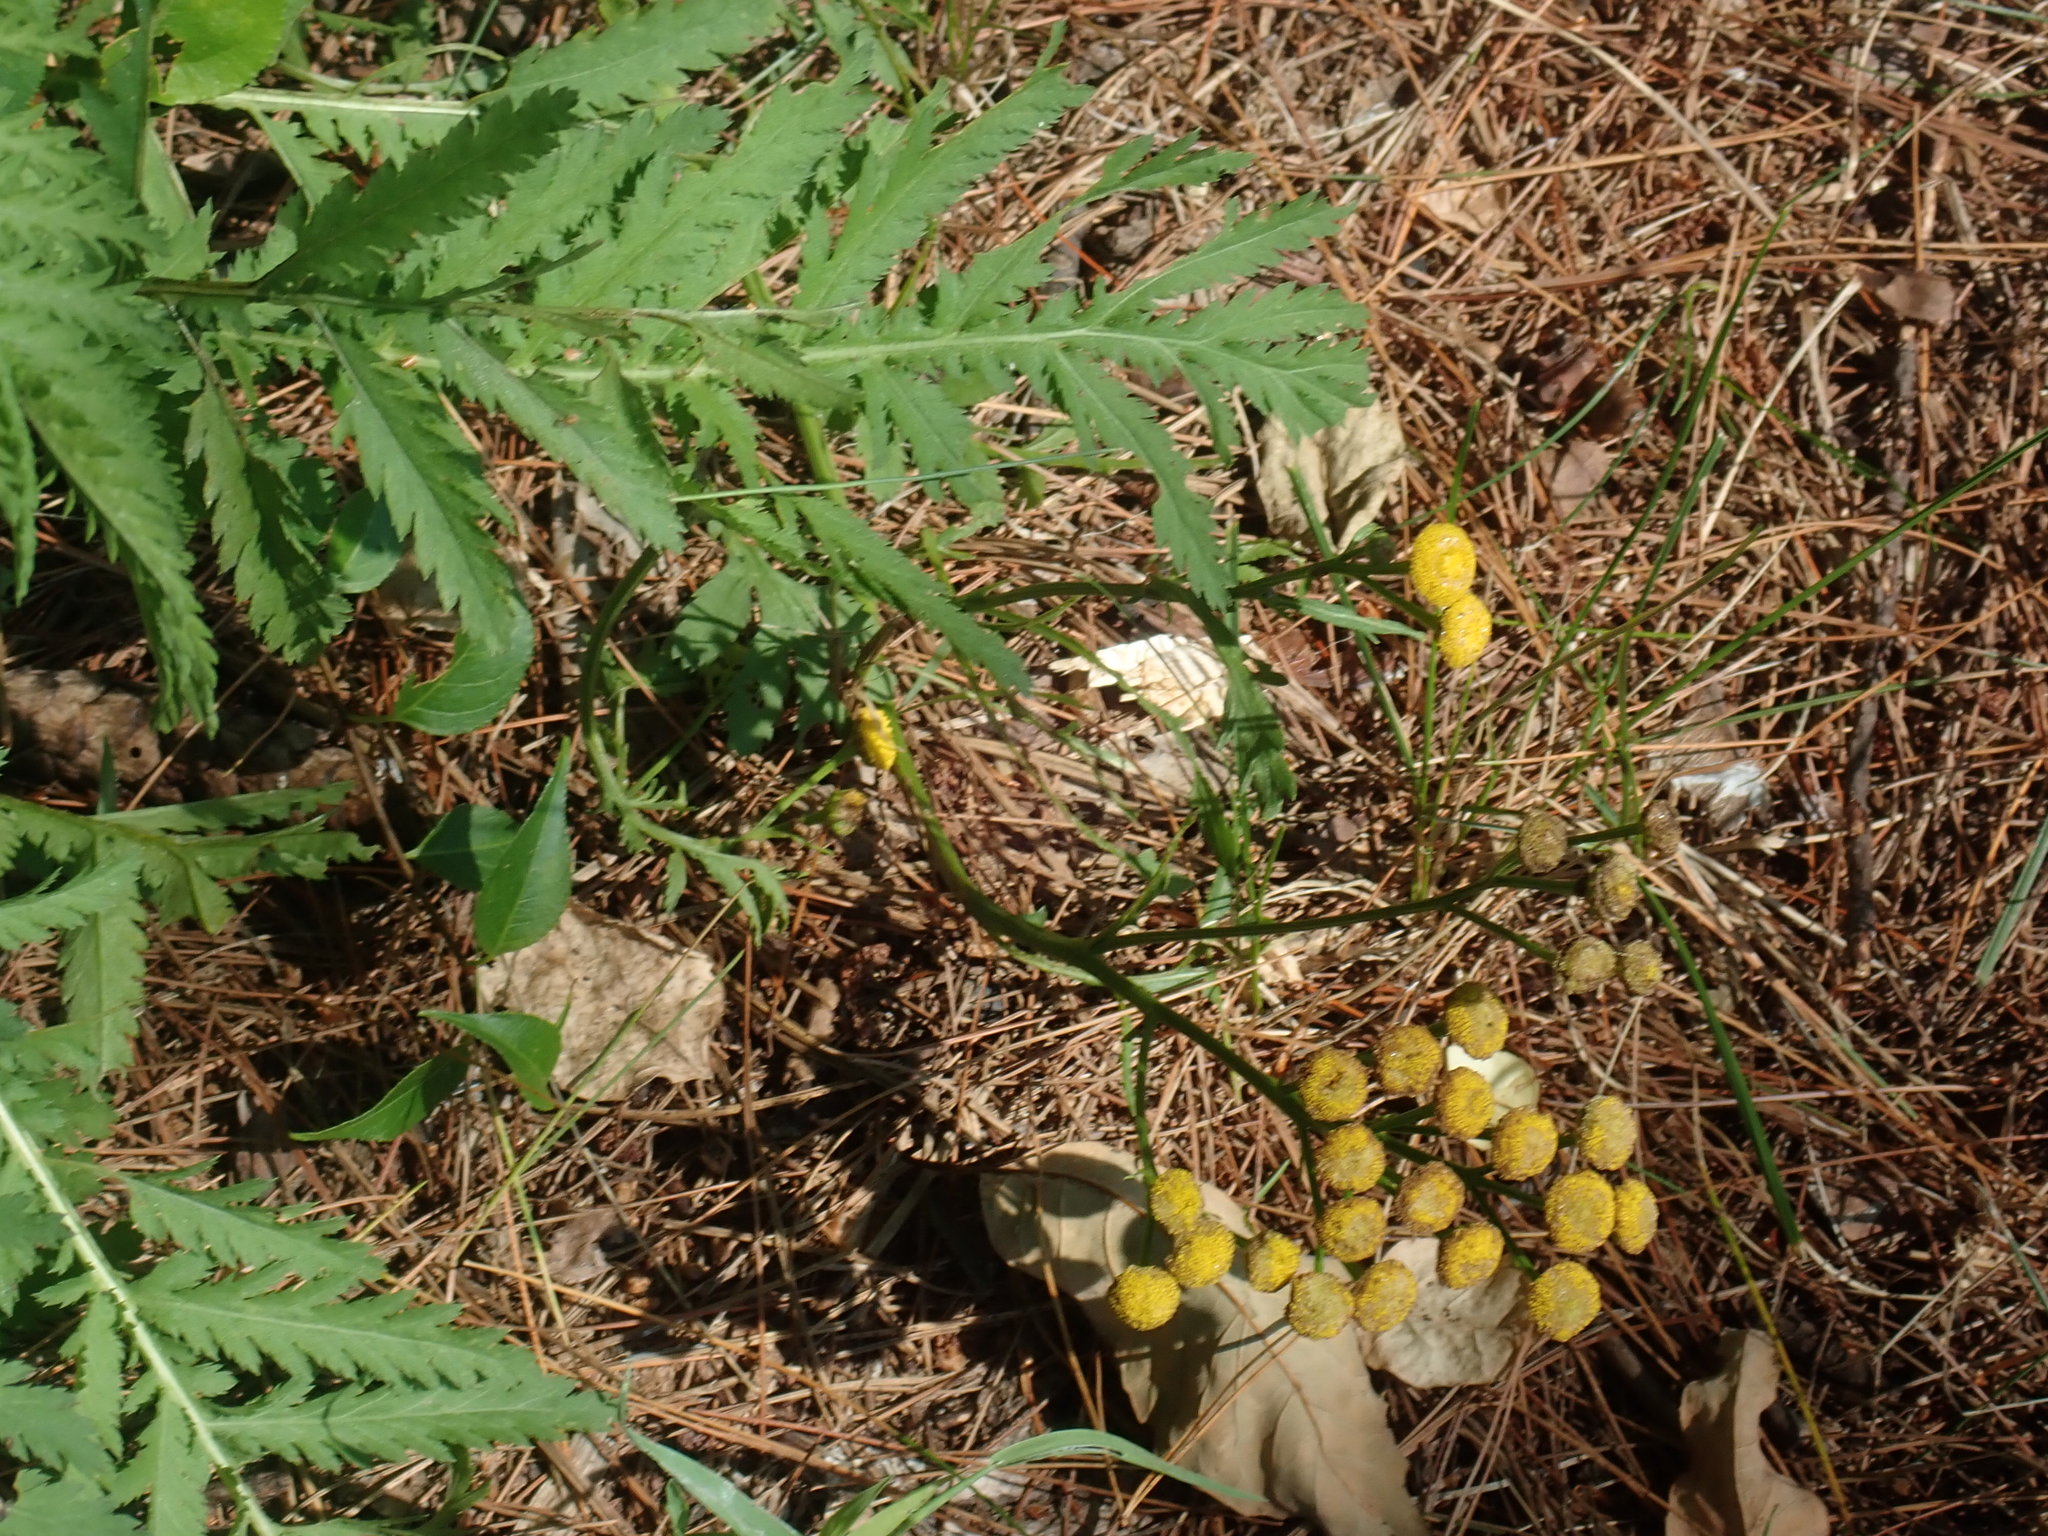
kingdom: Plantae
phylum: Tracheophyta
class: Magnoliopsida
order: Asterales
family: Asteraceae
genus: Tanacetum
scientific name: Tanacetum vulgare
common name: Common tansy
